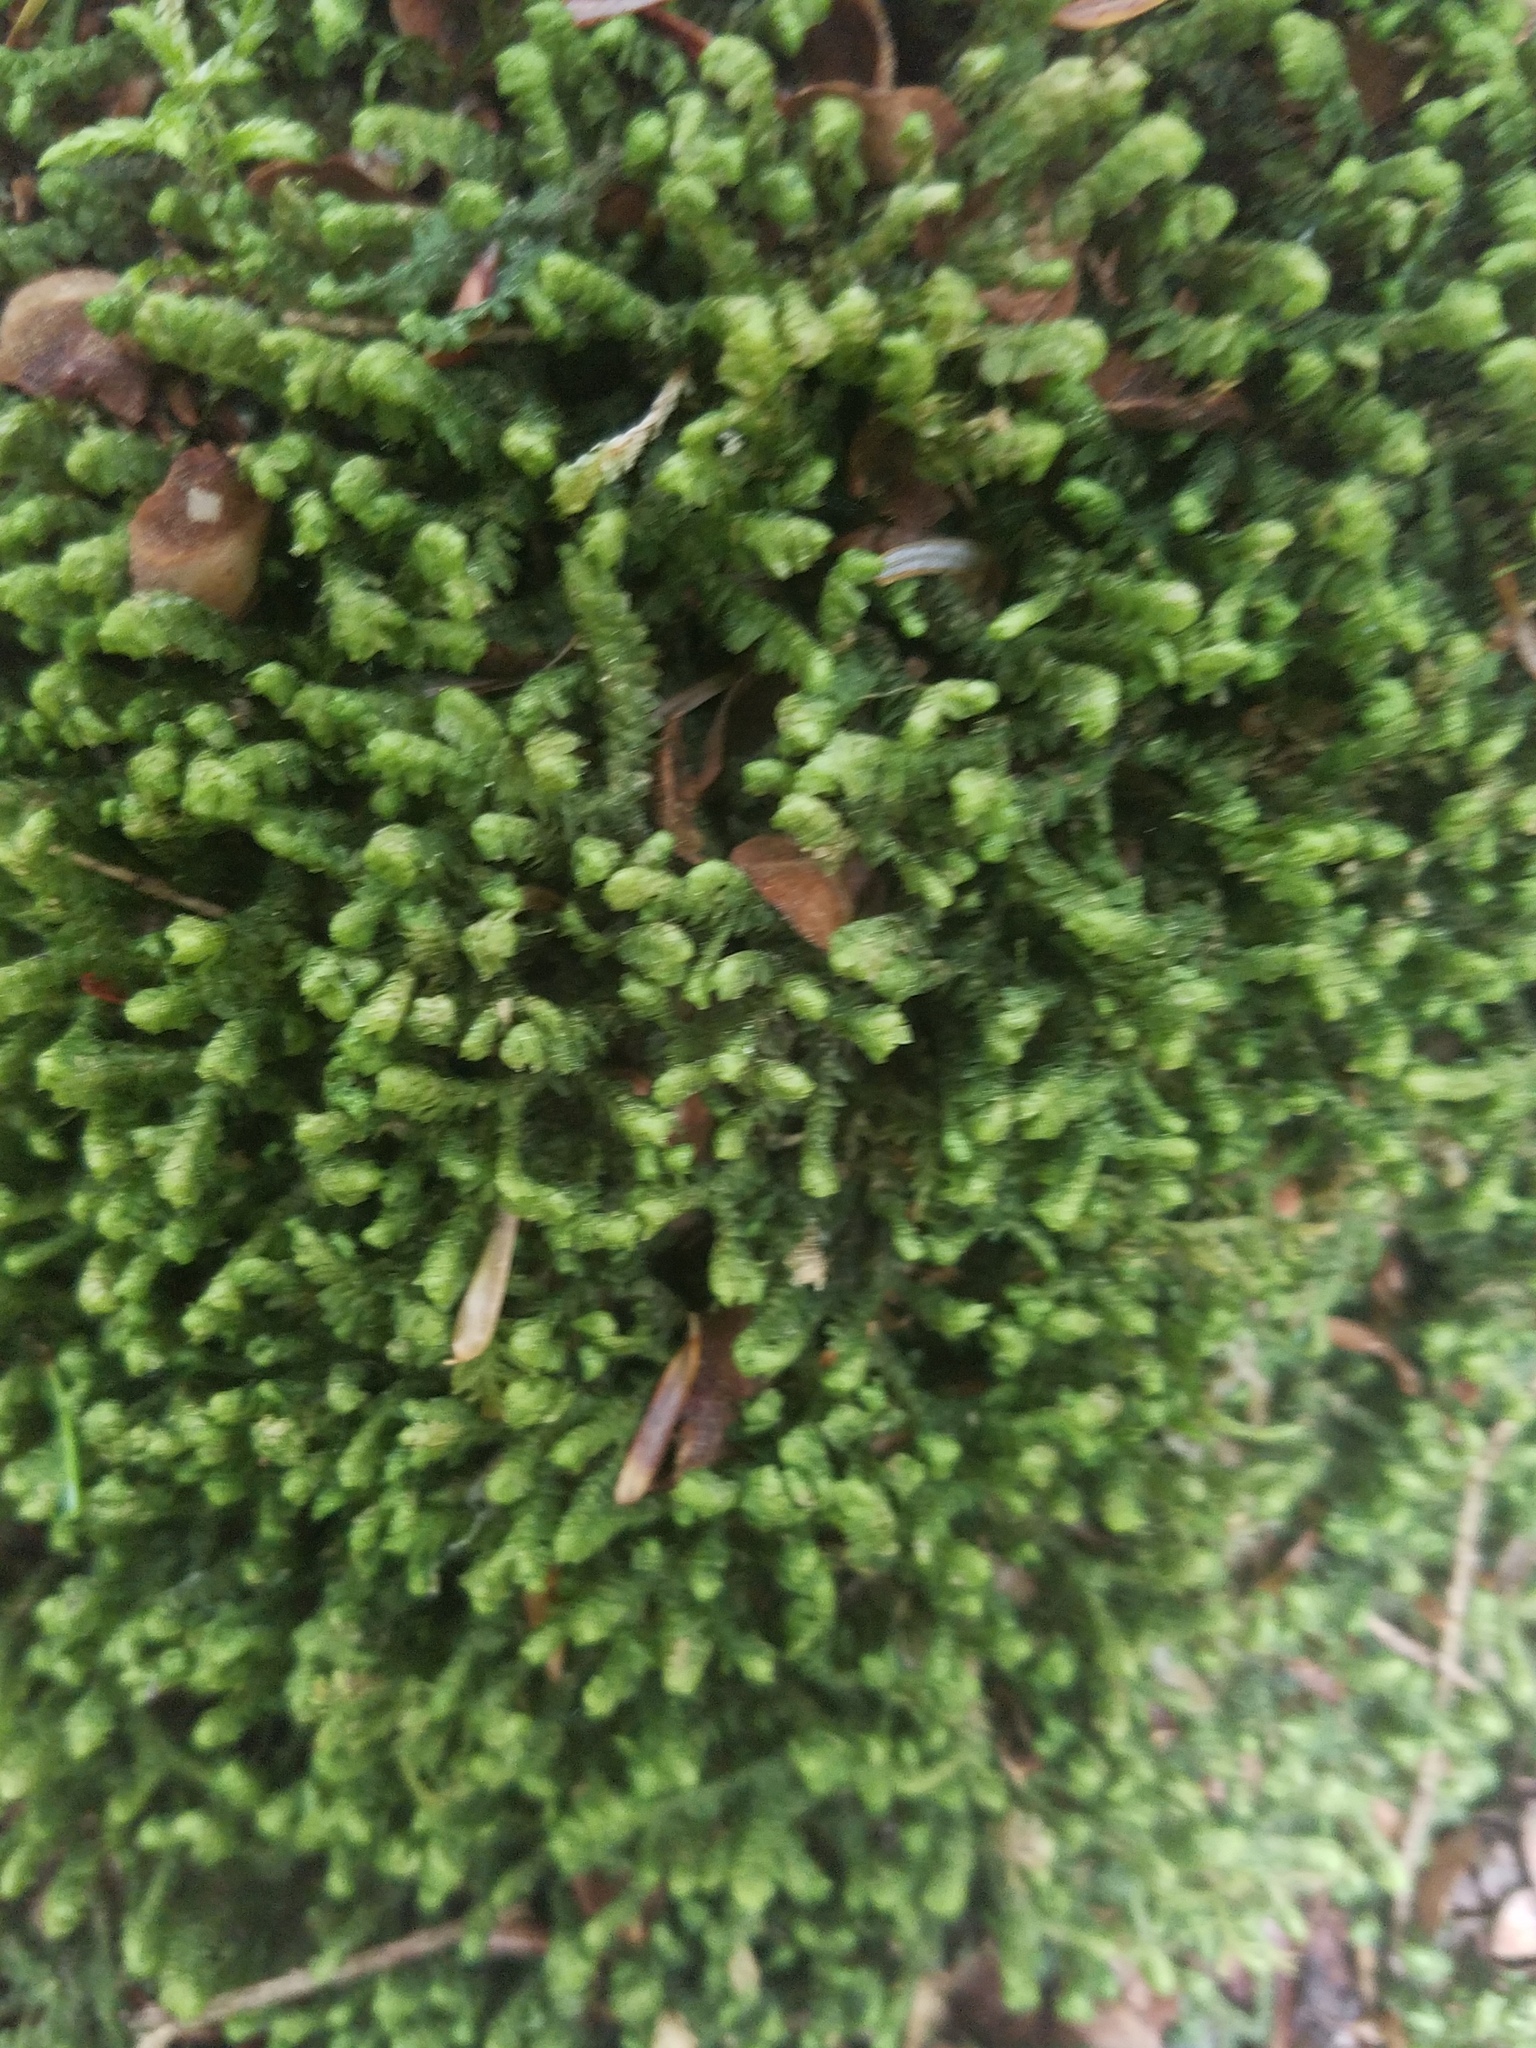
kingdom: Plantae
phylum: Marchantiophyta
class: Jungermanniopsida
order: Jungermanniales
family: Lepidoziaceae
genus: Bazzania
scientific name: Bazzania trilobata
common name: Three-lobed whipwort
